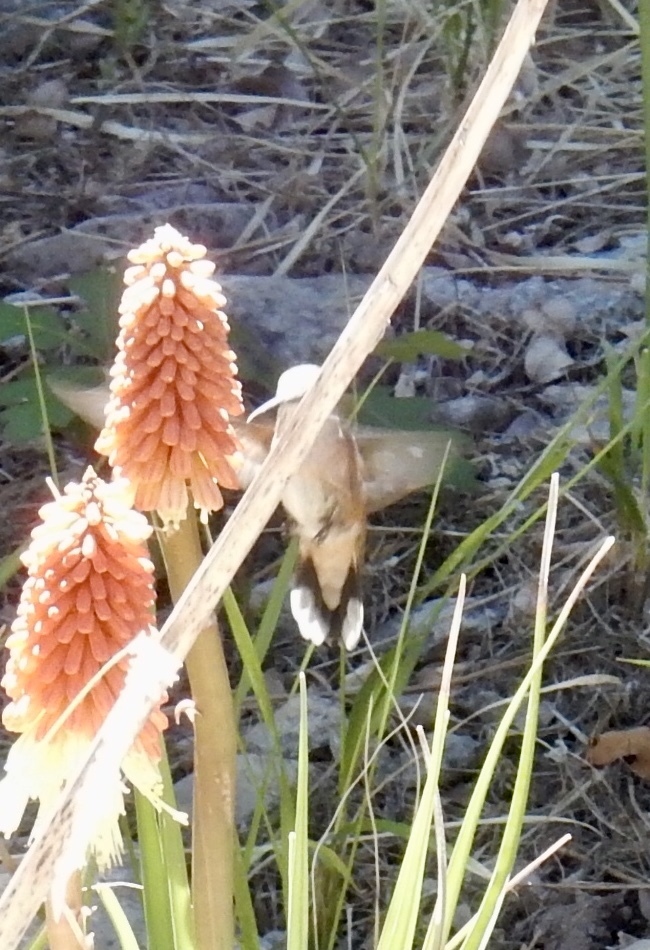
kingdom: Animalia
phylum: Chordata
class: Aves
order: Apodiformes
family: Trochilidae
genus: Selasphorus
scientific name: Selasphorus platycercus
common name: Broad-tailed hummingbird
